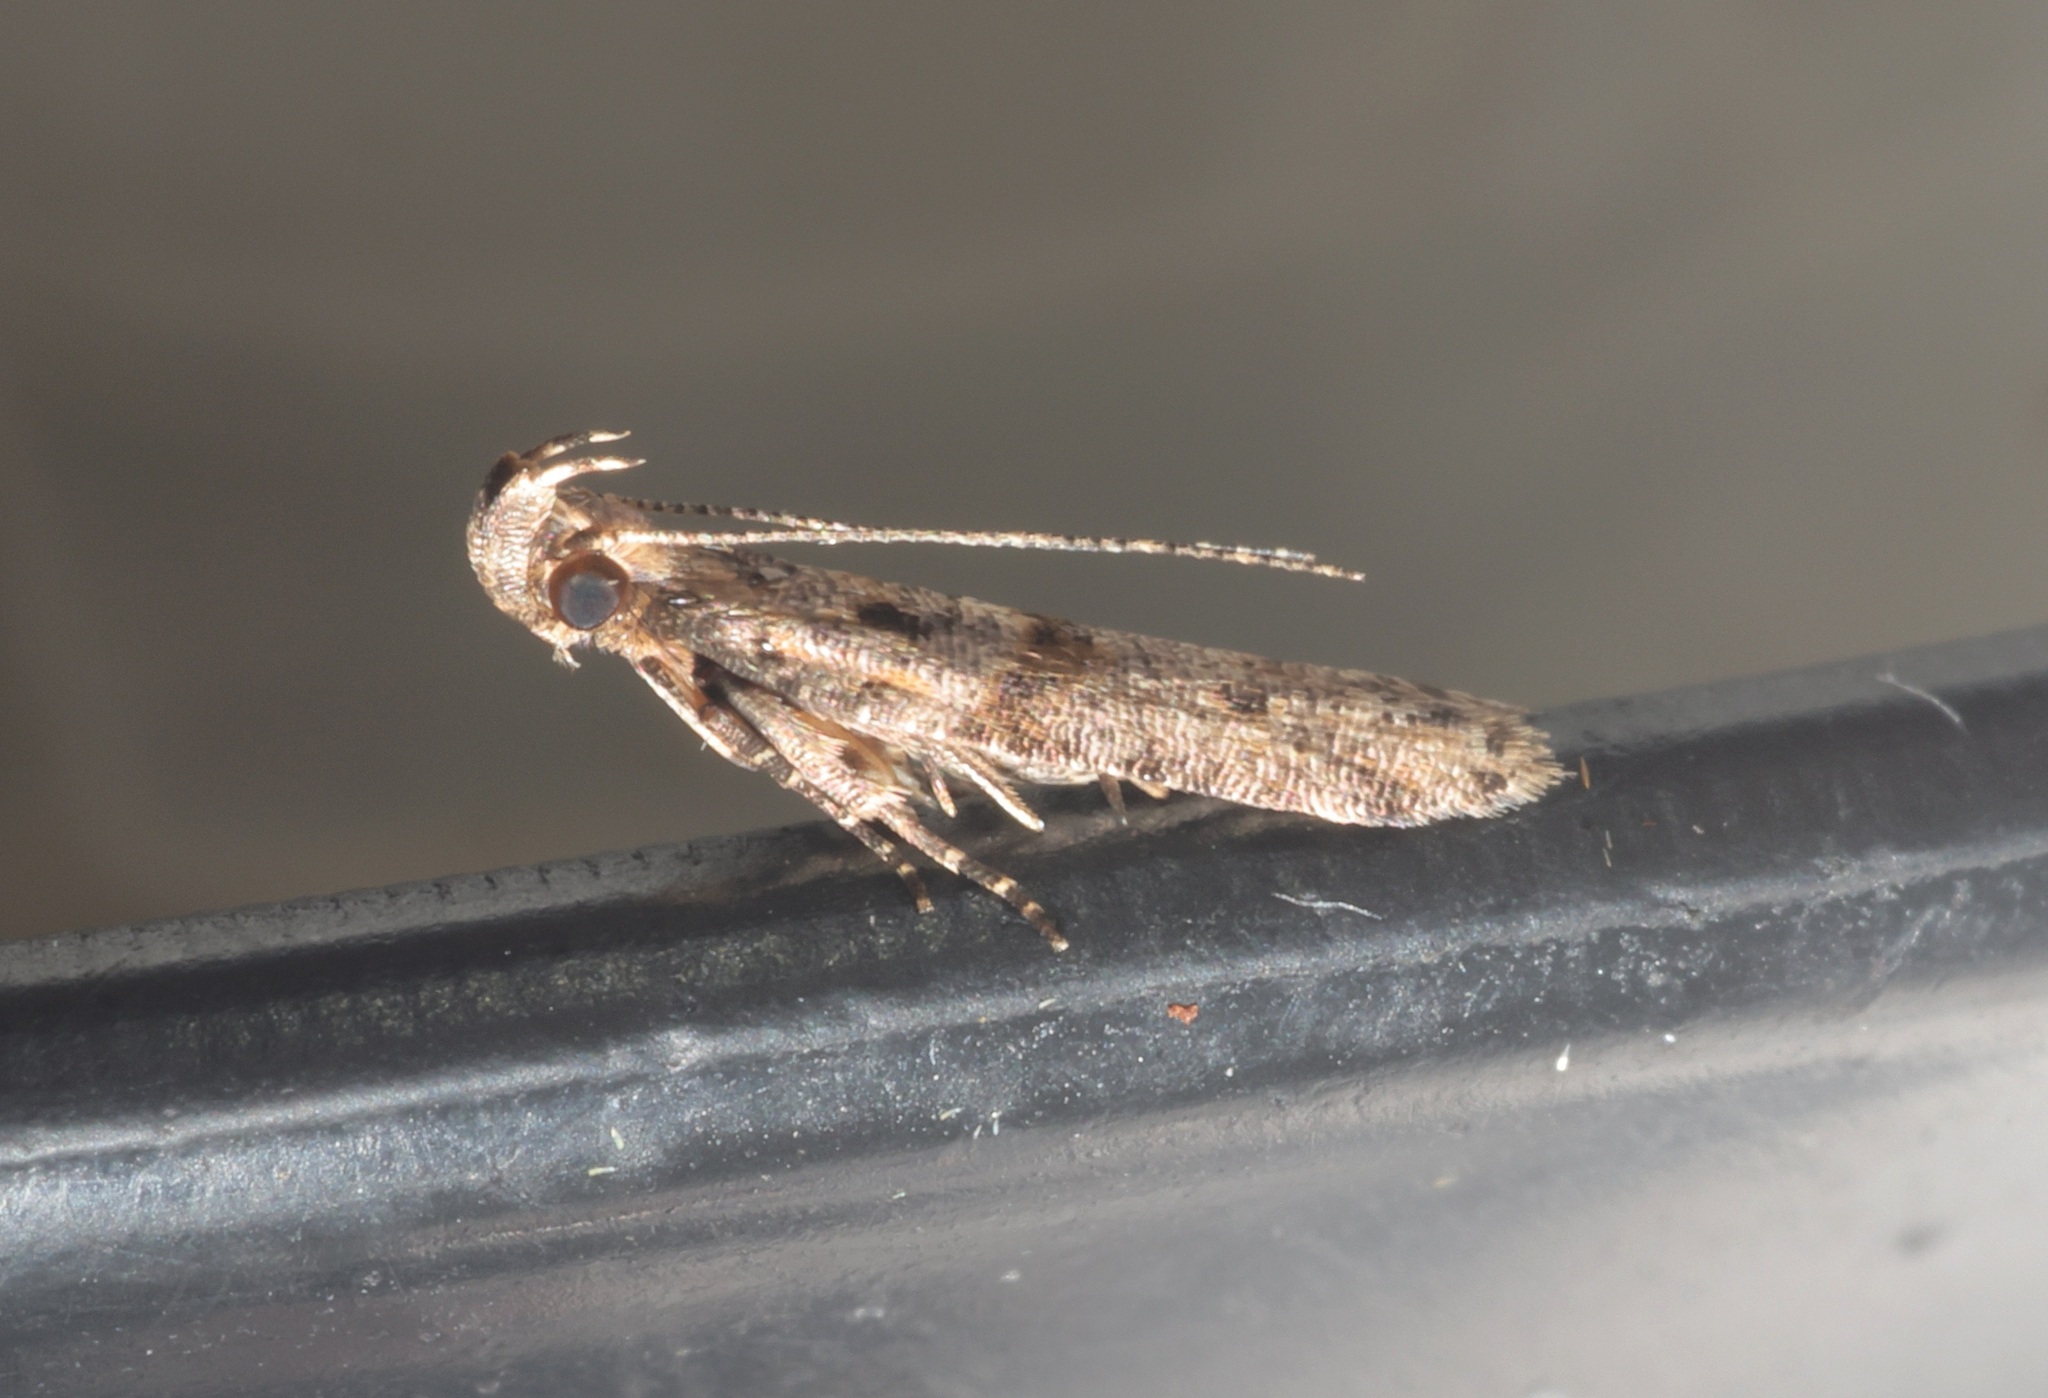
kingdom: Animalia
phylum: Arthropoda
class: Insecta
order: Lepidoptera
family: Gelechiidae
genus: Deltophora
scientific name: Deltophora polliniferens
